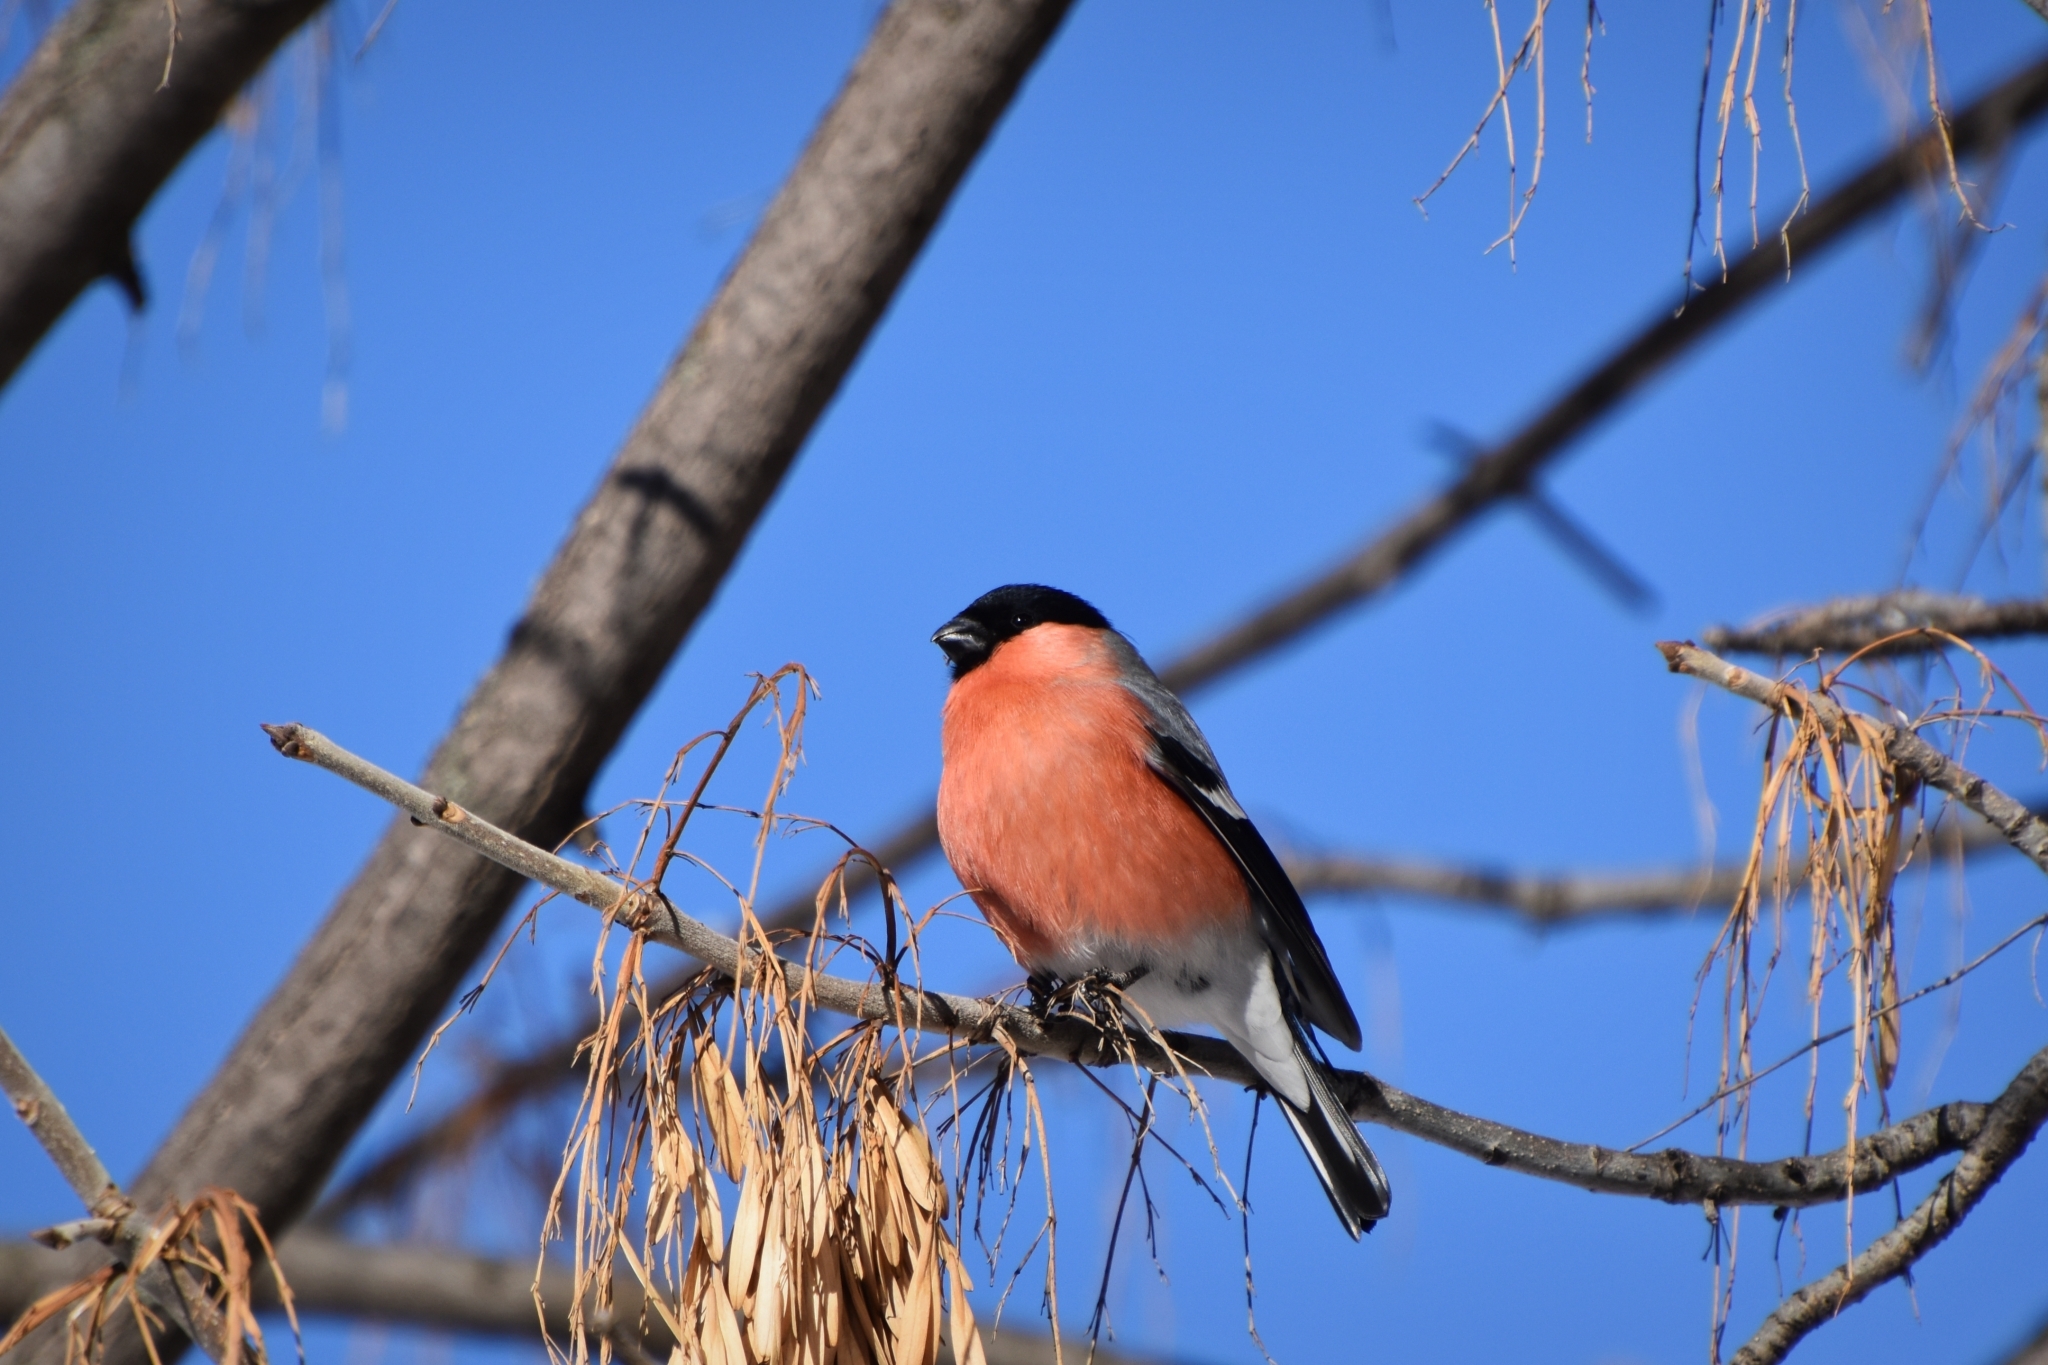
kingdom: Animalia
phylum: Chordata
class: Aves
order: Passeriformes
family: Fringillidae
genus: Pyrrhula
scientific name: Pyrrhula pyrrhula
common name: Eurasian bullfinch
